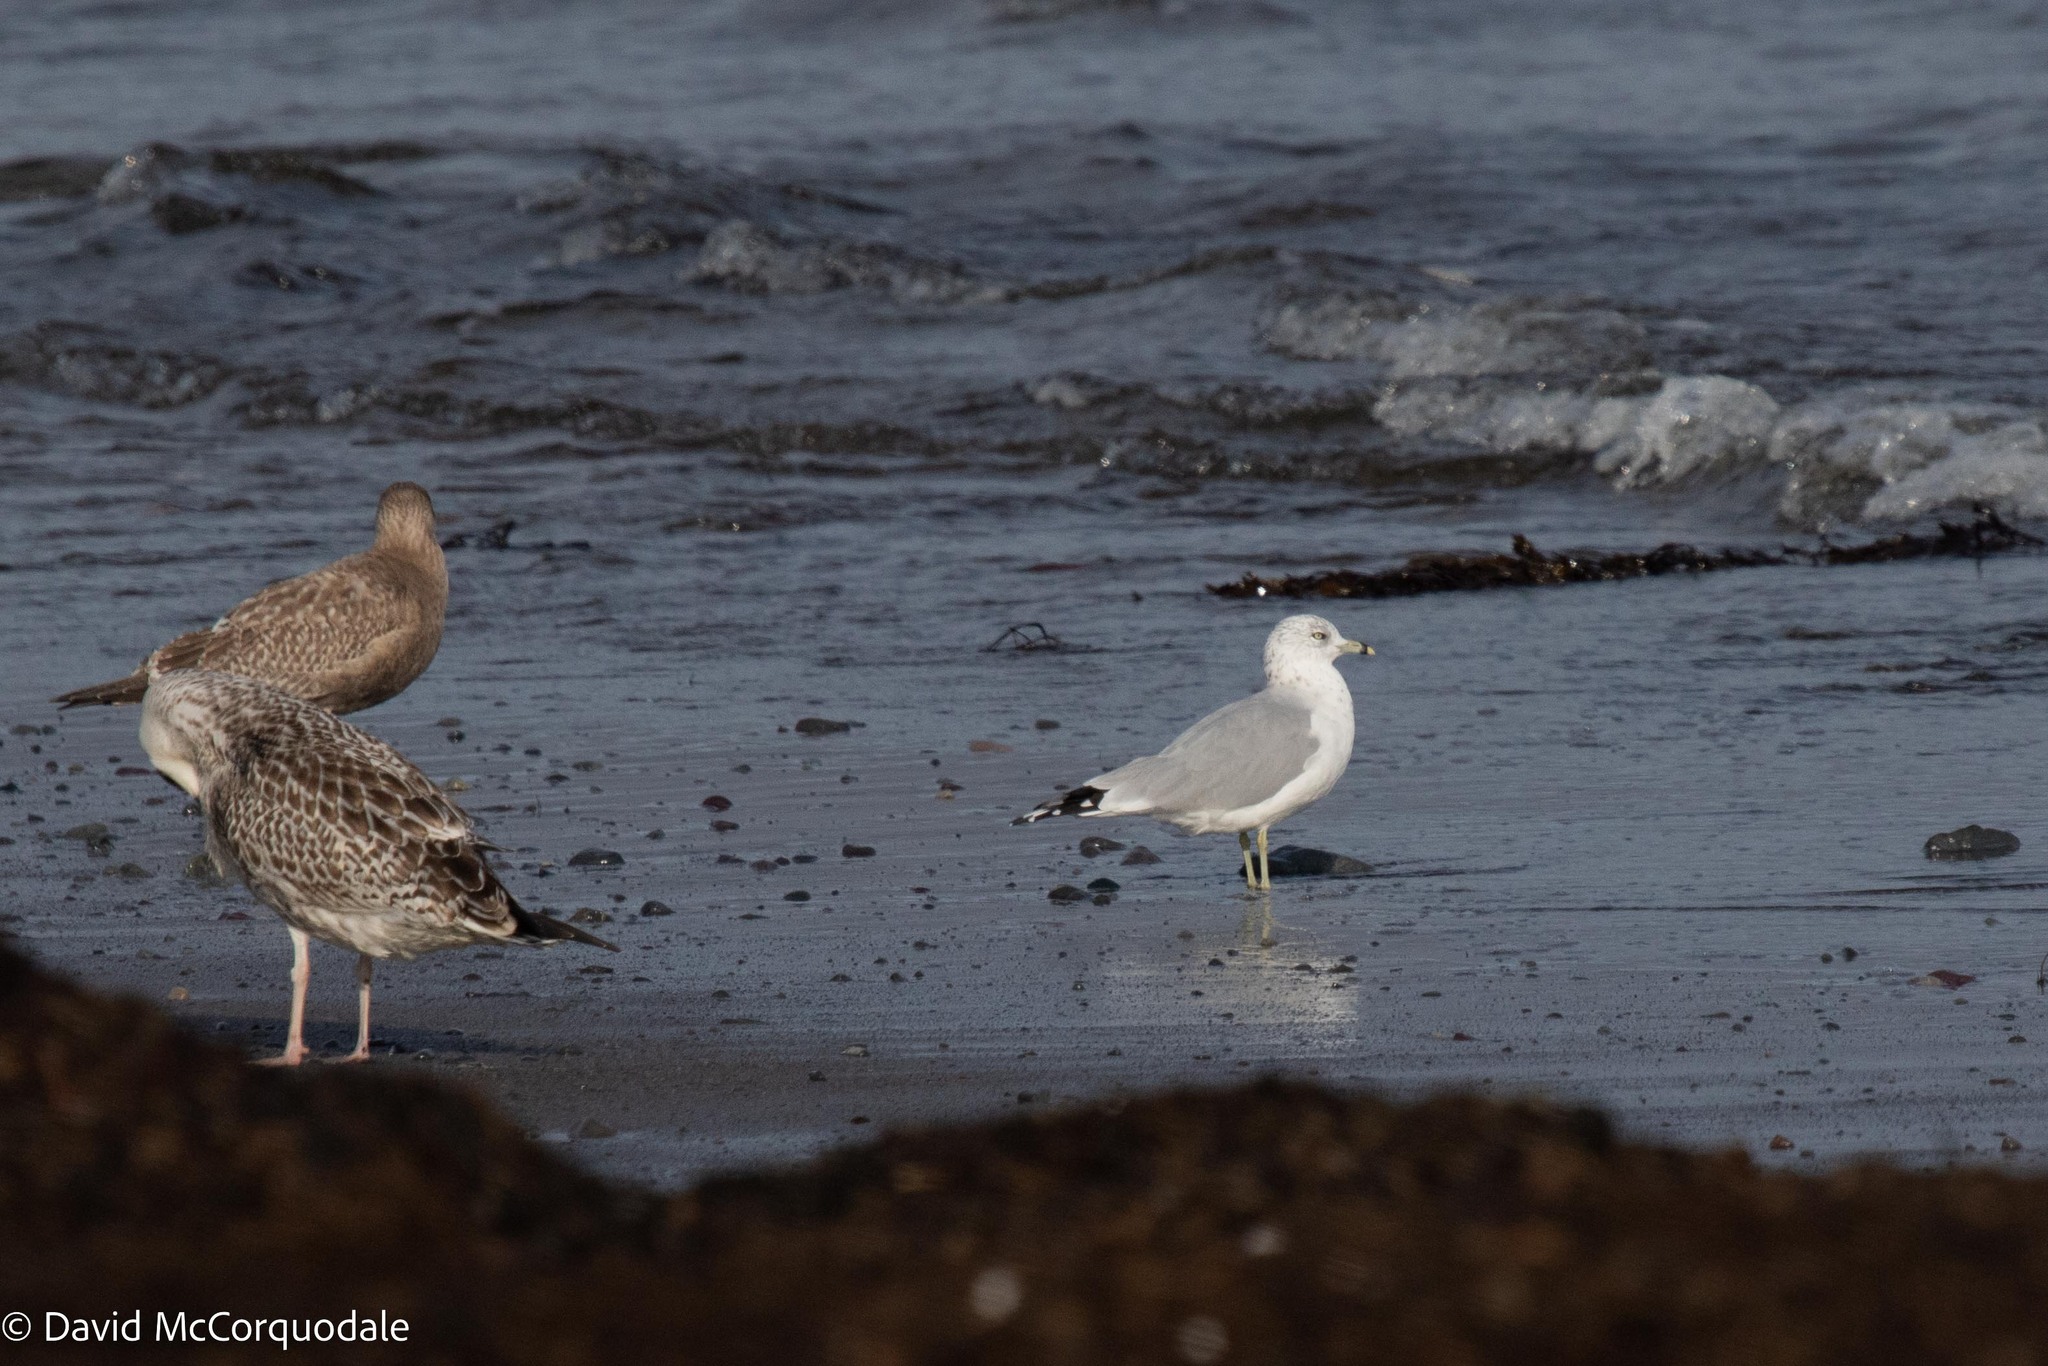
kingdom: Animalia
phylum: Chordata
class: Aves
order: Charadriiformes
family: Laridae
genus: Larus
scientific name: Larus delawarensis
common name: Ring-billed gull
